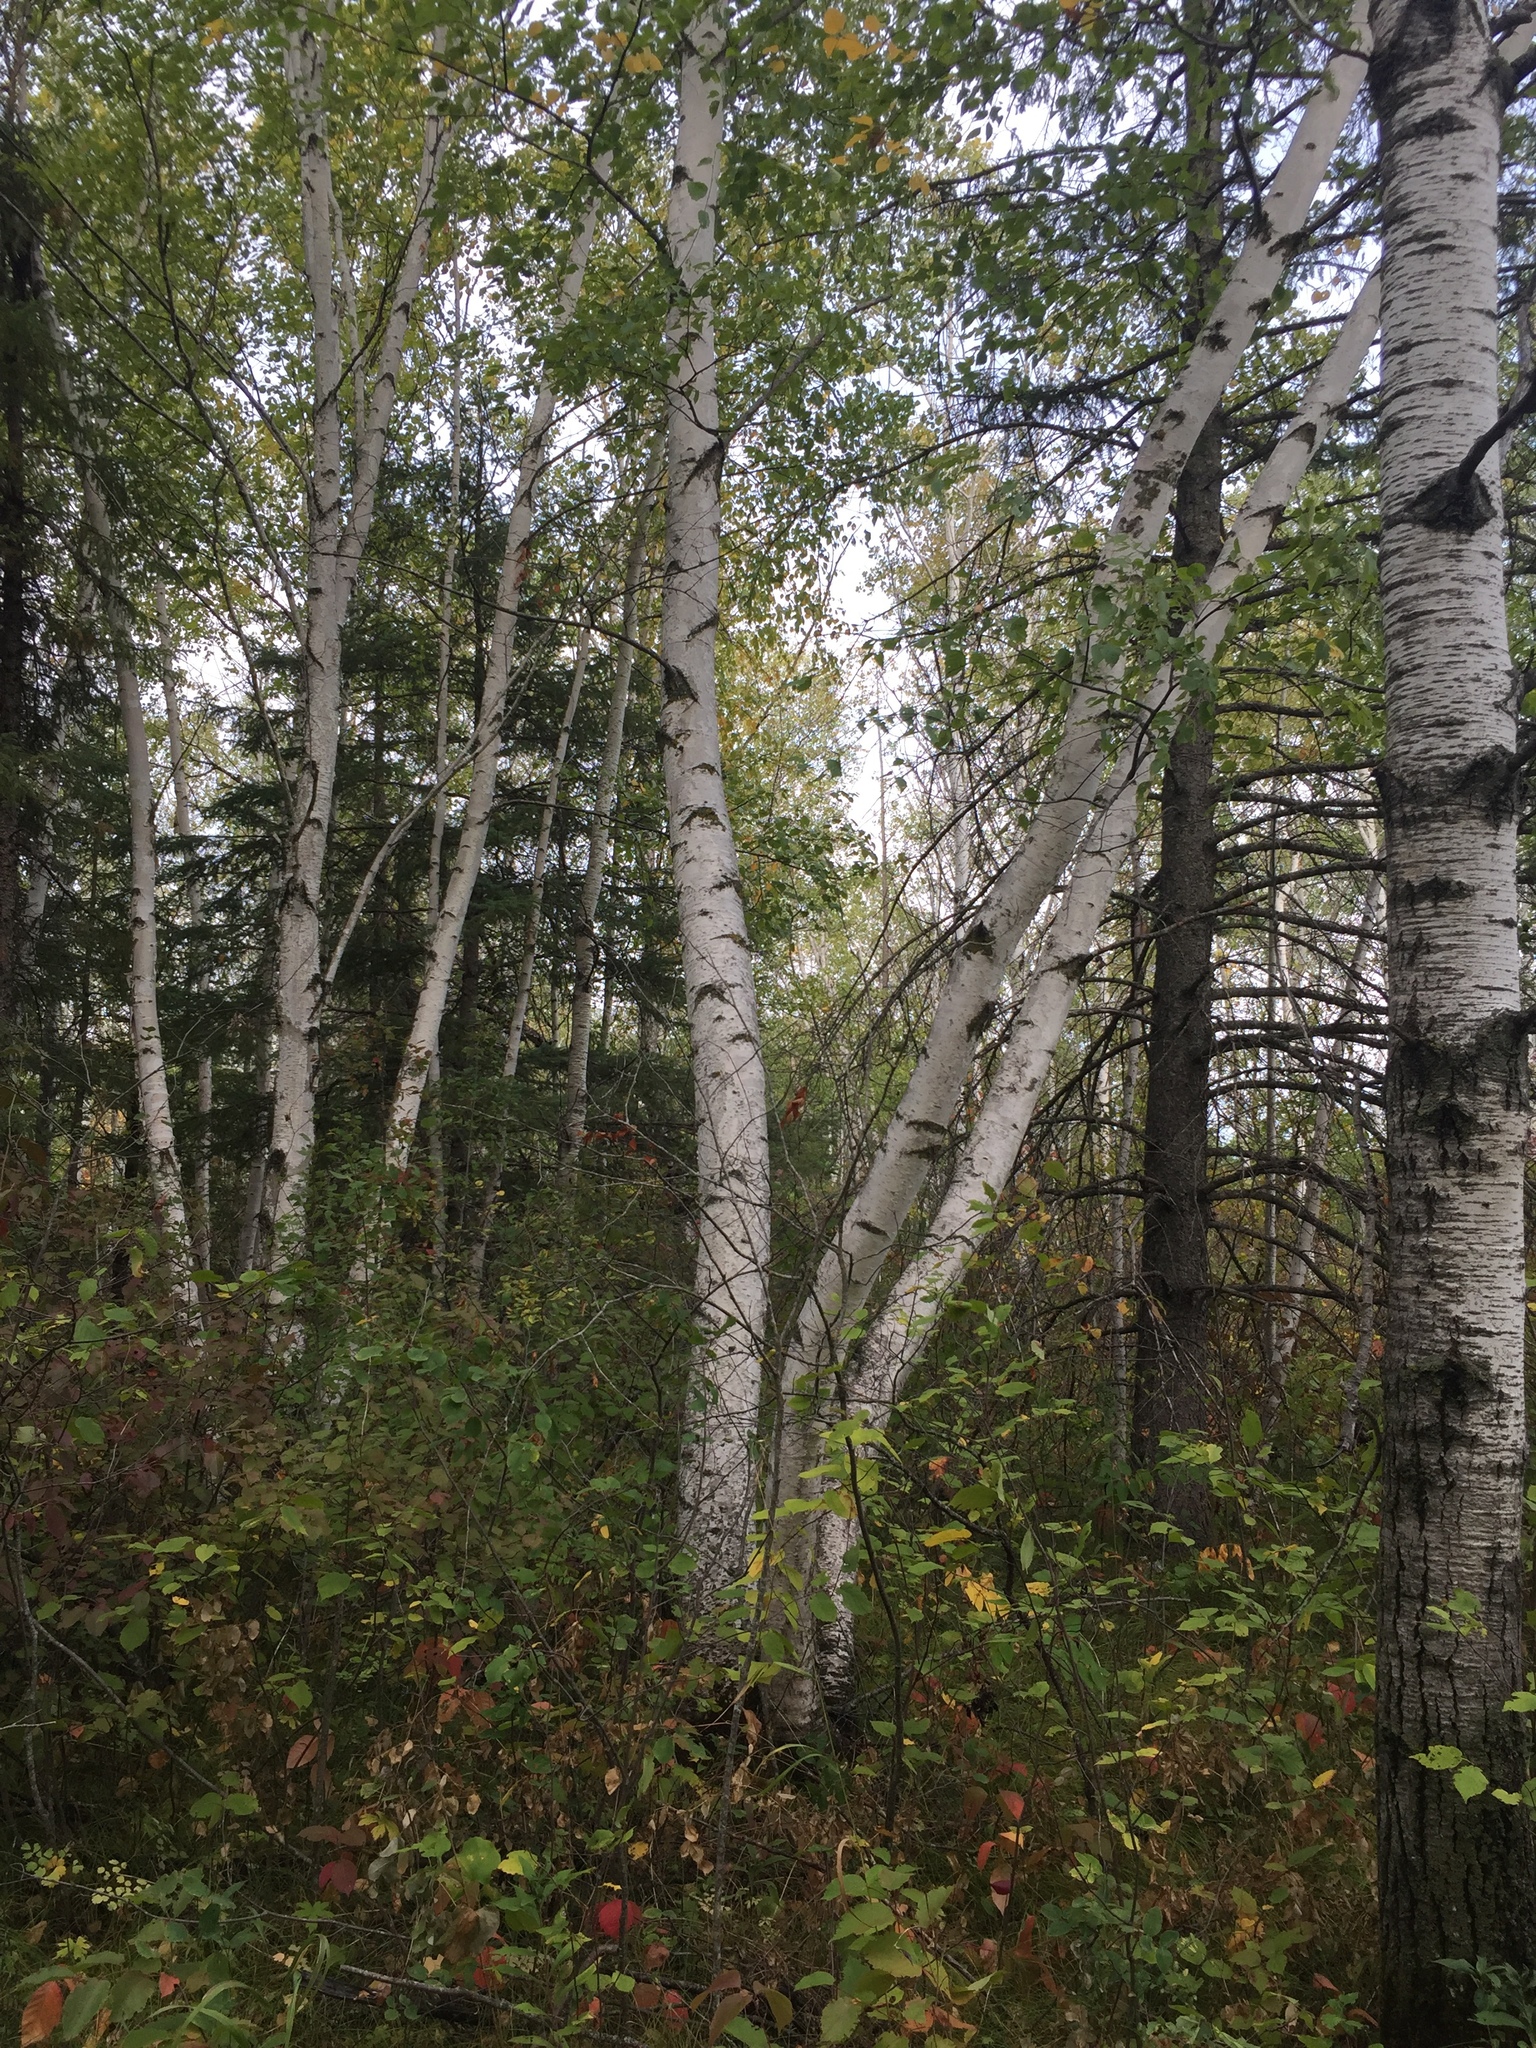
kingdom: Plantae
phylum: Tracheophyta
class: Magnoliopsida
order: Fagales
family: Betulaceae
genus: Betula
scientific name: Betula papyrifera
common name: Paper birch
